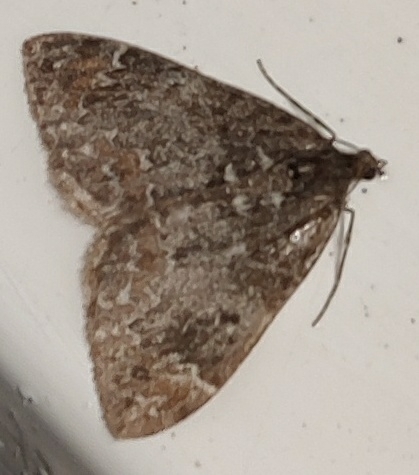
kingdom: Animalia
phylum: Arthropoda
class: Insecta
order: Lepidoptera
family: Geometridae
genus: Dysstroma
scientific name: Dysstroma
